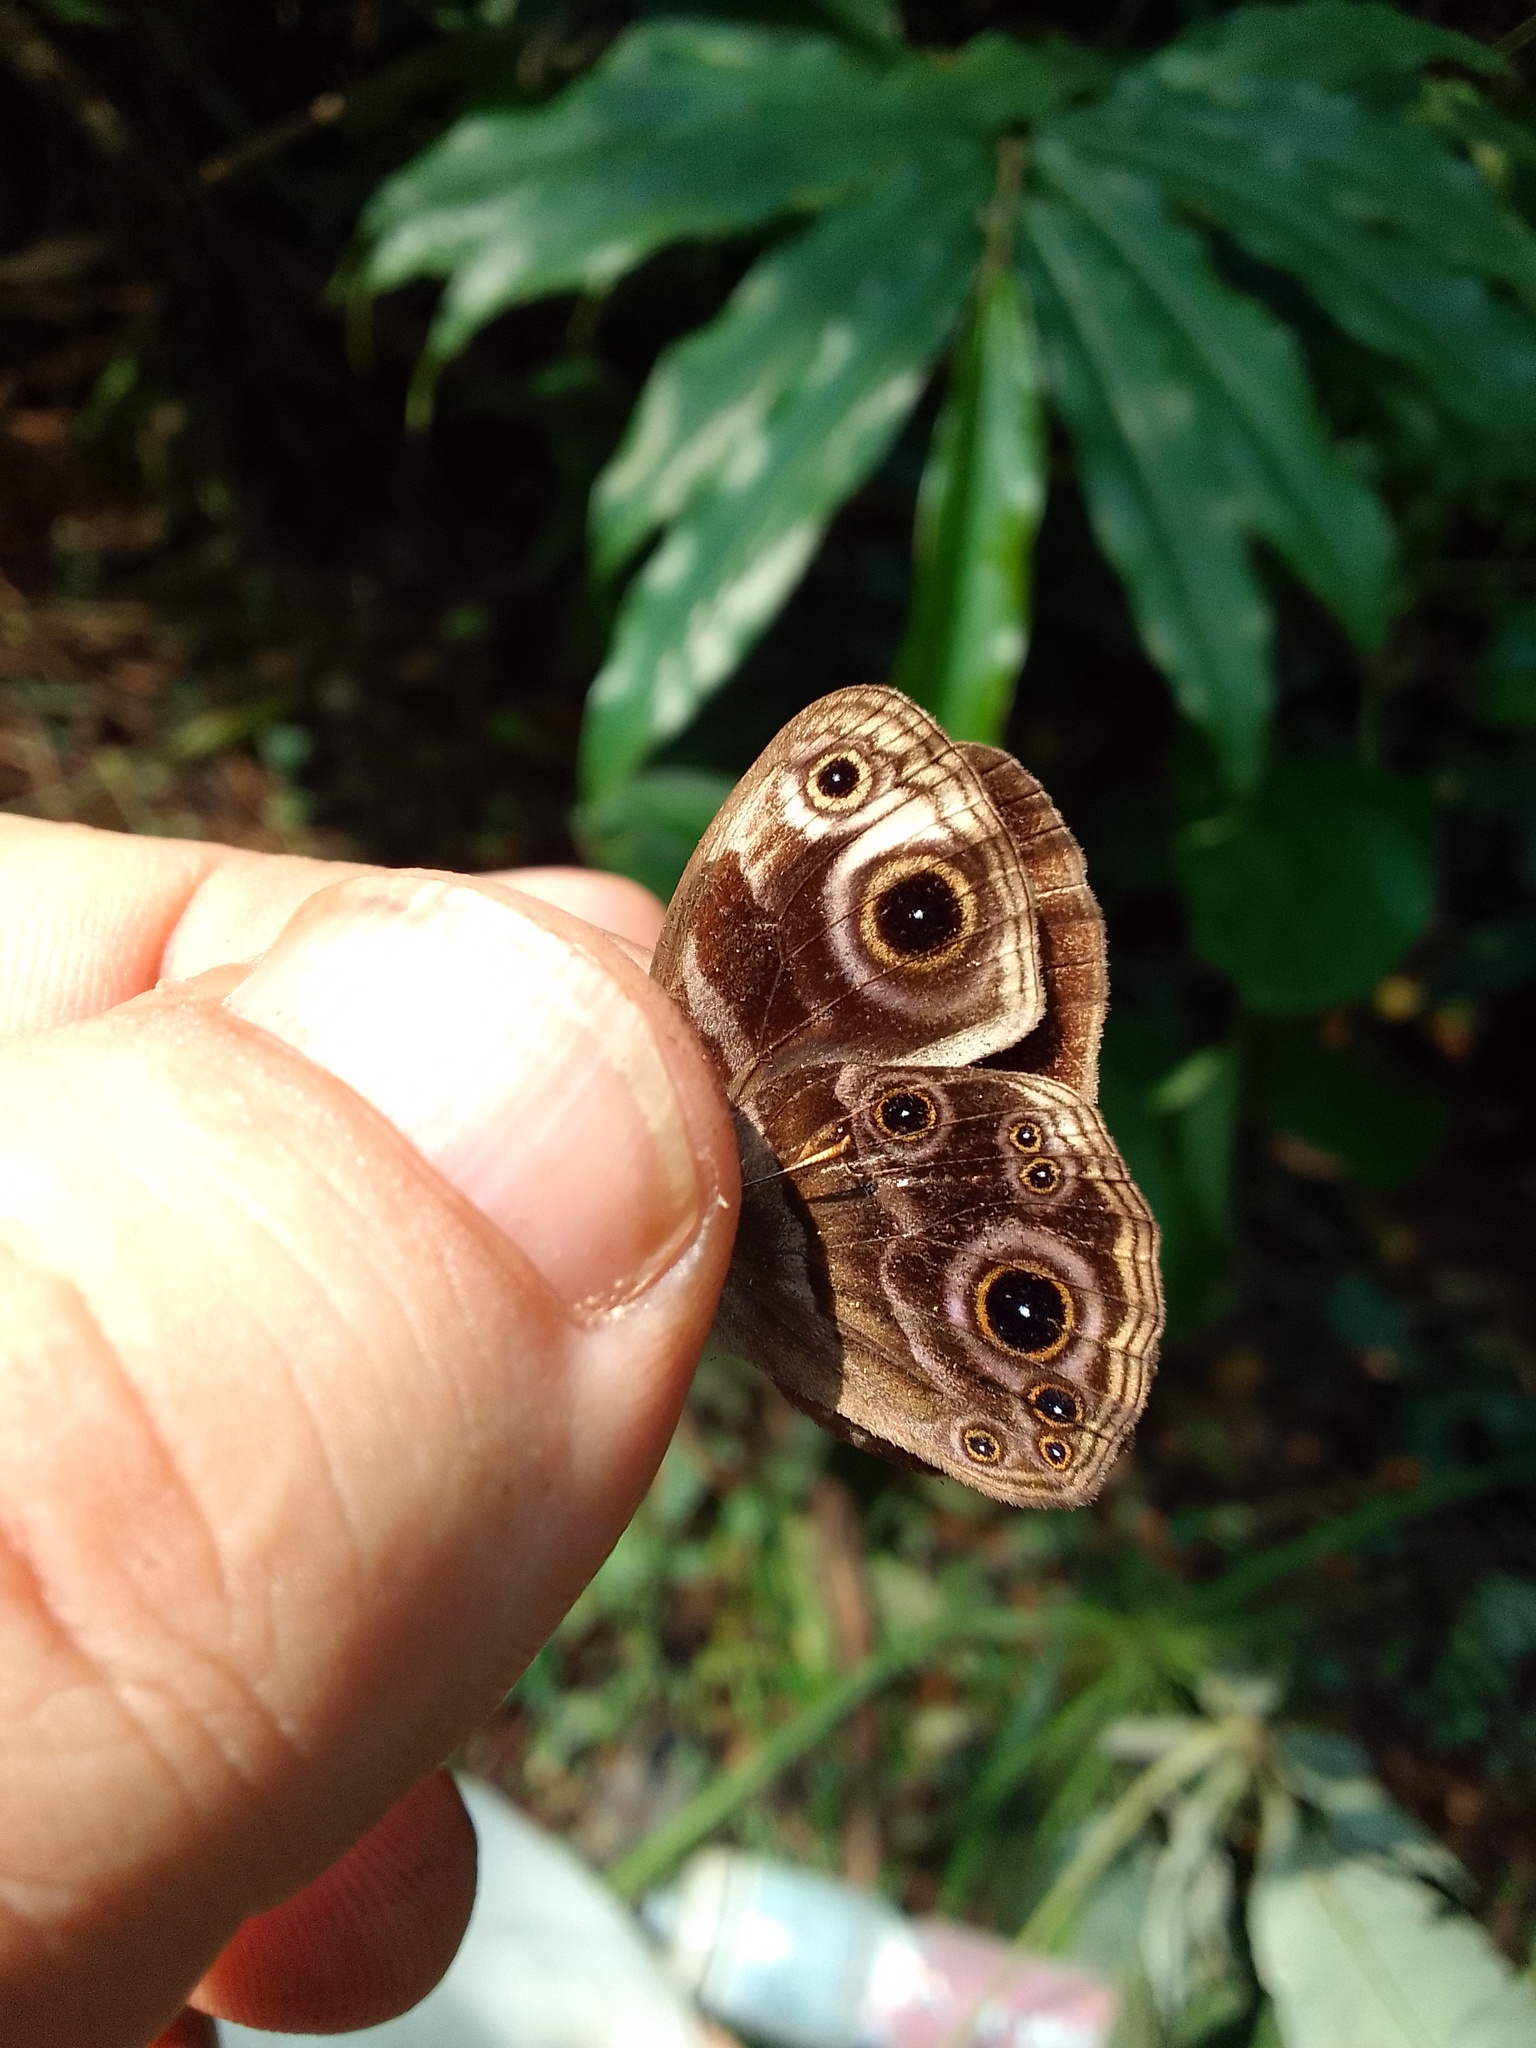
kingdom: Animalia
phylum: Arthropoda
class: Insecta
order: Lepidoptera
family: Nymphalidae
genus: Bicyclus
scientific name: Bicyclus ignobilis
